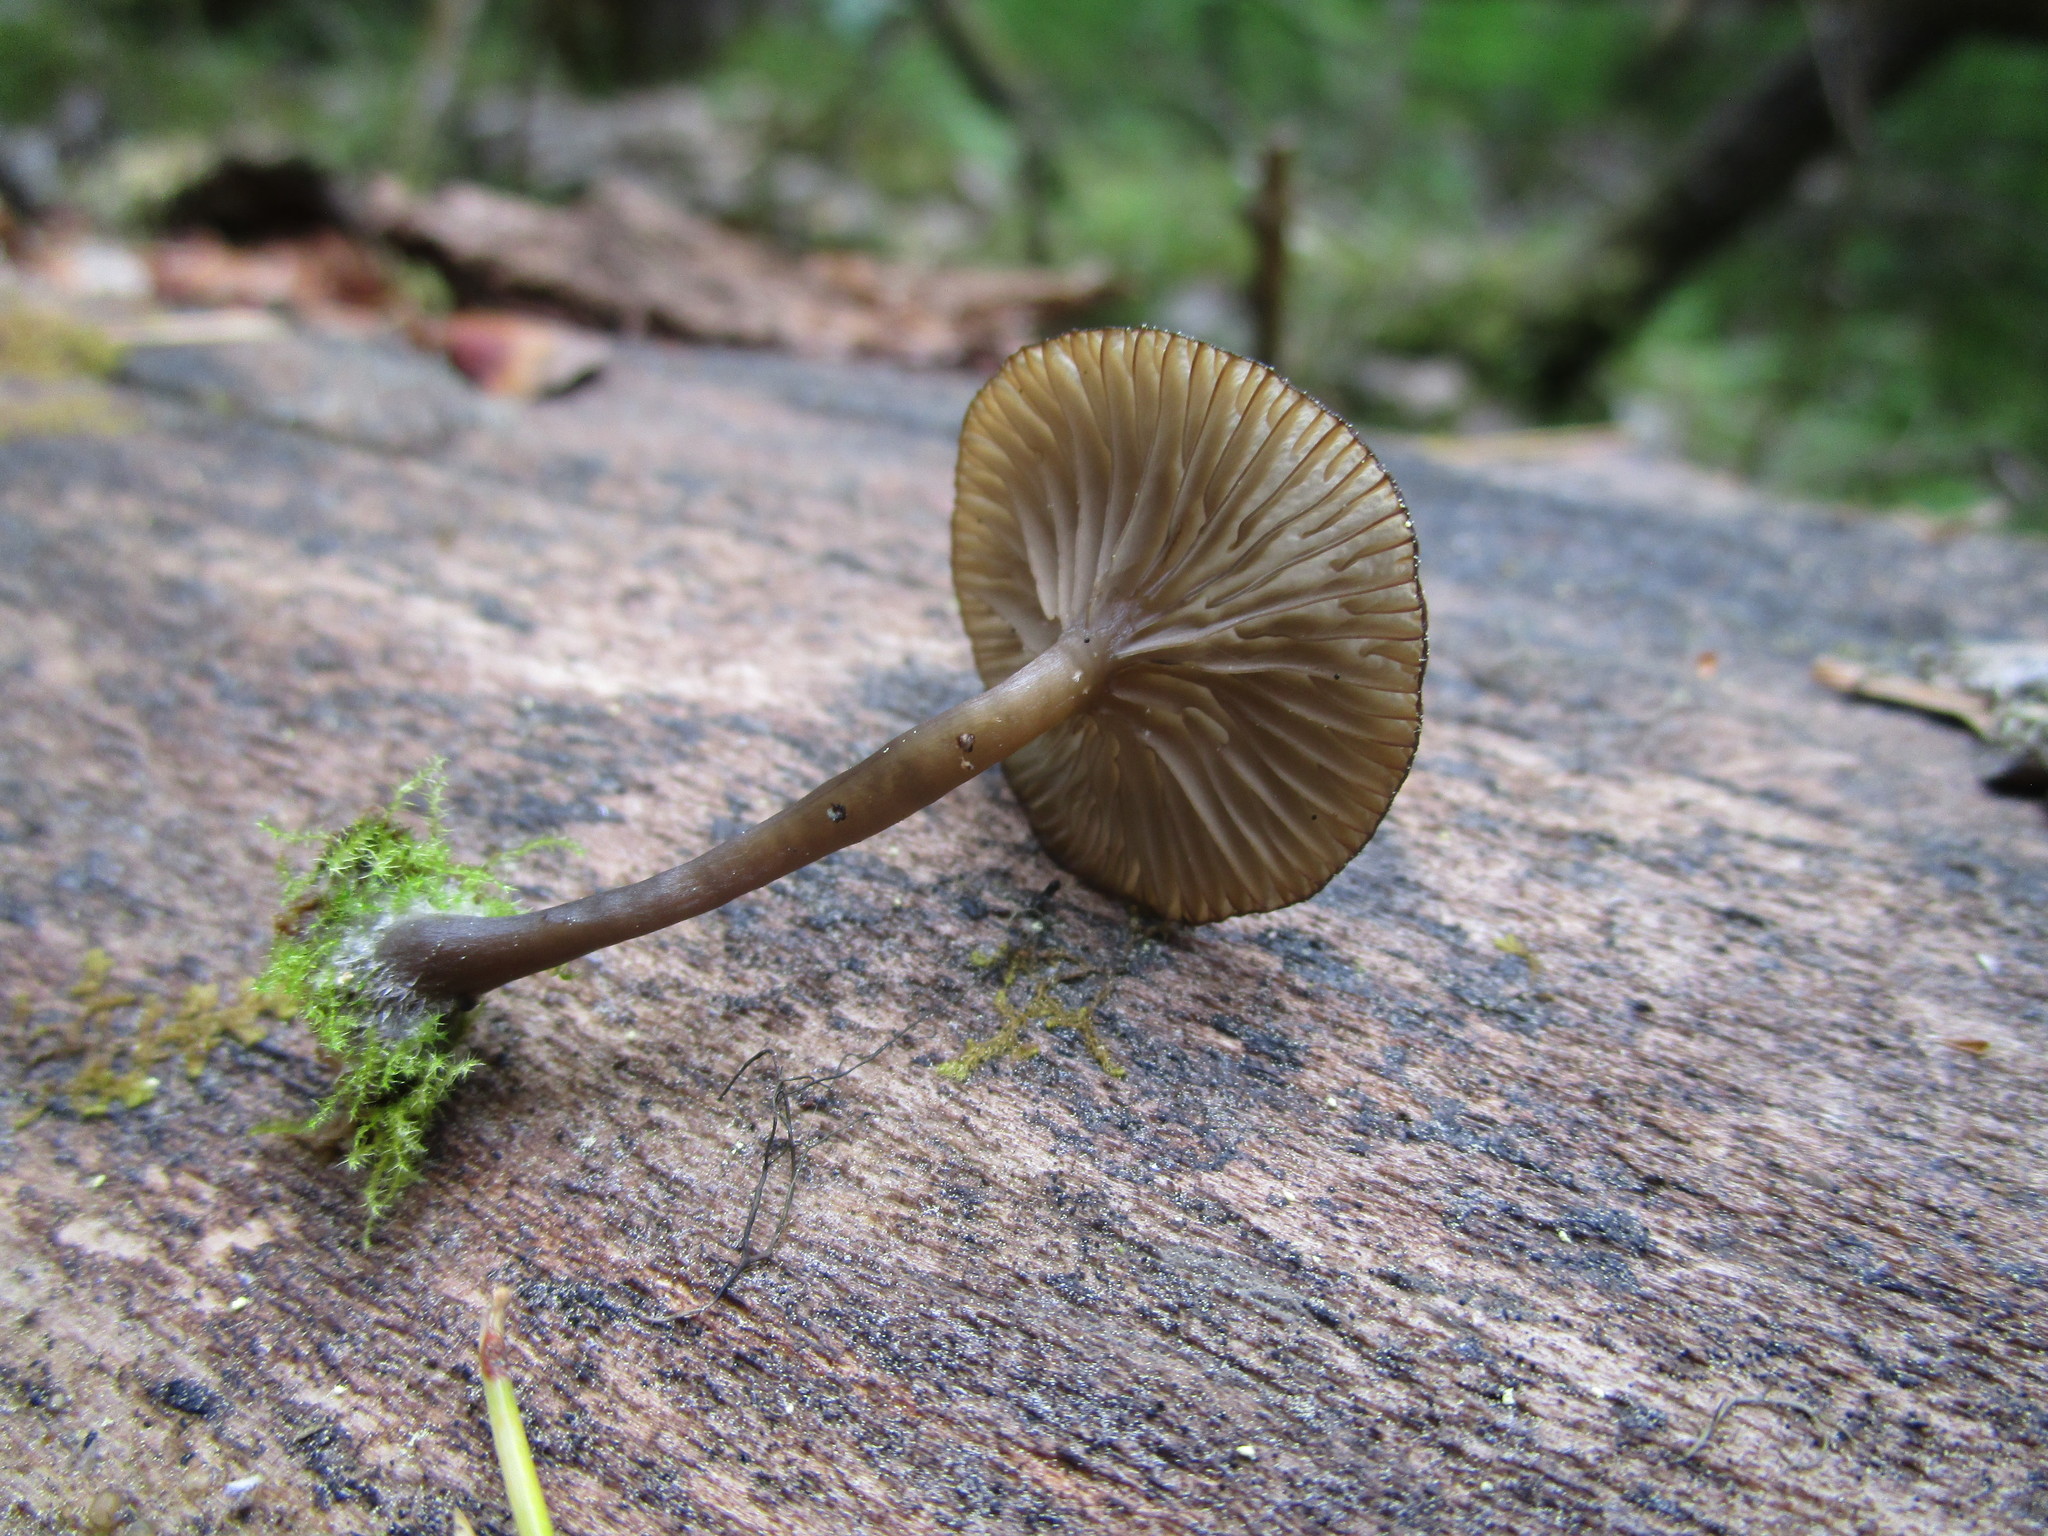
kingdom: Fungi
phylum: Basidiomycota
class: Agaricomycetes
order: Agaricales
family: Hygrophoraceae
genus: Arrhenia
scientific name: Arrhenia epichysium
